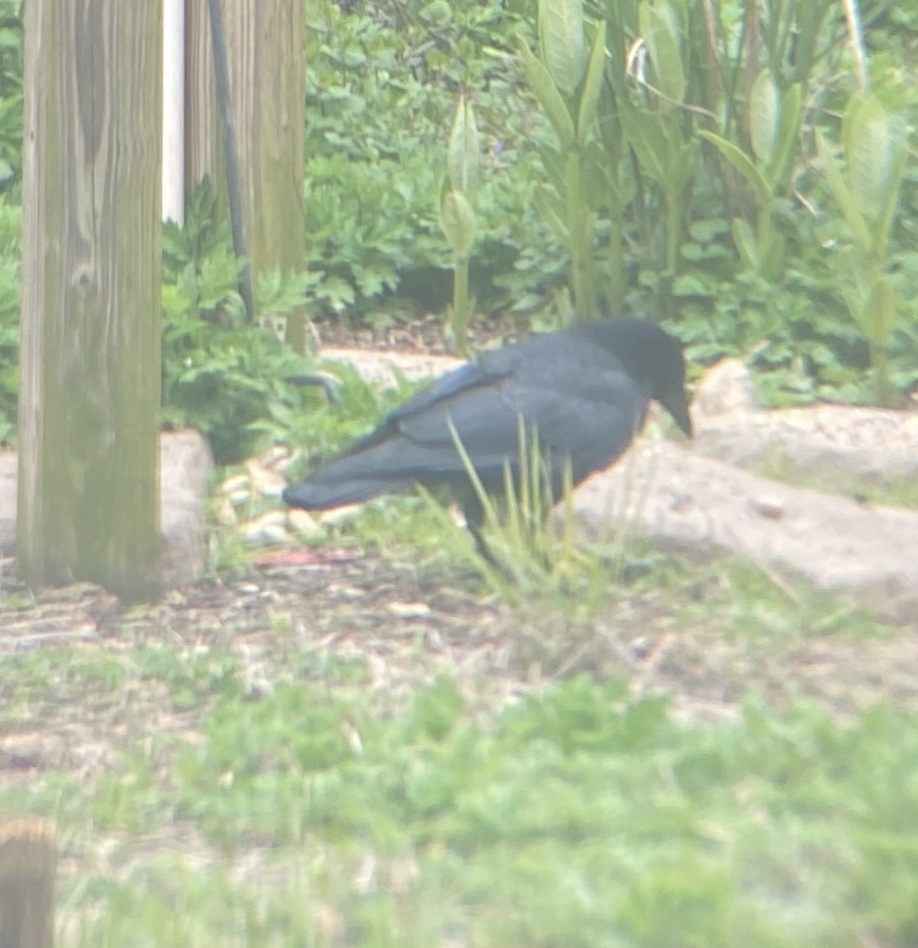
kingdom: Animalia
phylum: Chordata
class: Aves
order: Passeriformes
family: Corvidae
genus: Corvus
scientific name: Corvus
